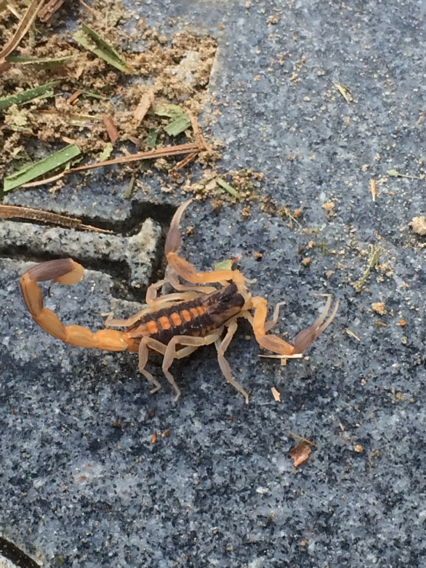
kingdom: Animalia
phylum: Arthropoda
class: Arachnida
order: Scorpiones
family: Buthidae
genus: Centruroides
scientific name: Centruroides vittatus
